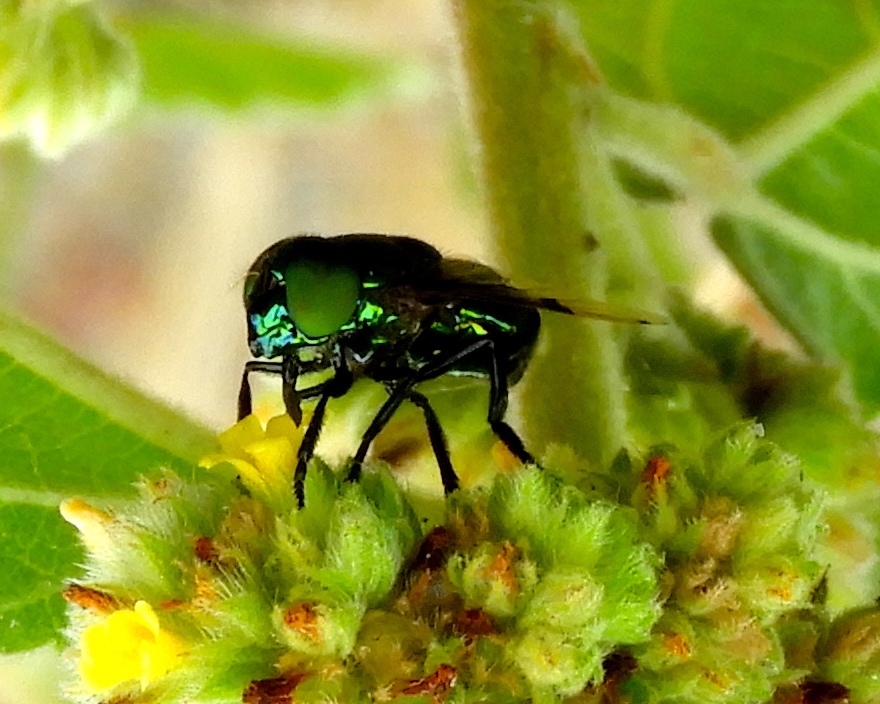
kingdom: Animalia
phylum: Arthropoda
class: Insecta
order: Diptera
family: Syrphidae
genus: Ornidia
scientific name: Ornidia
